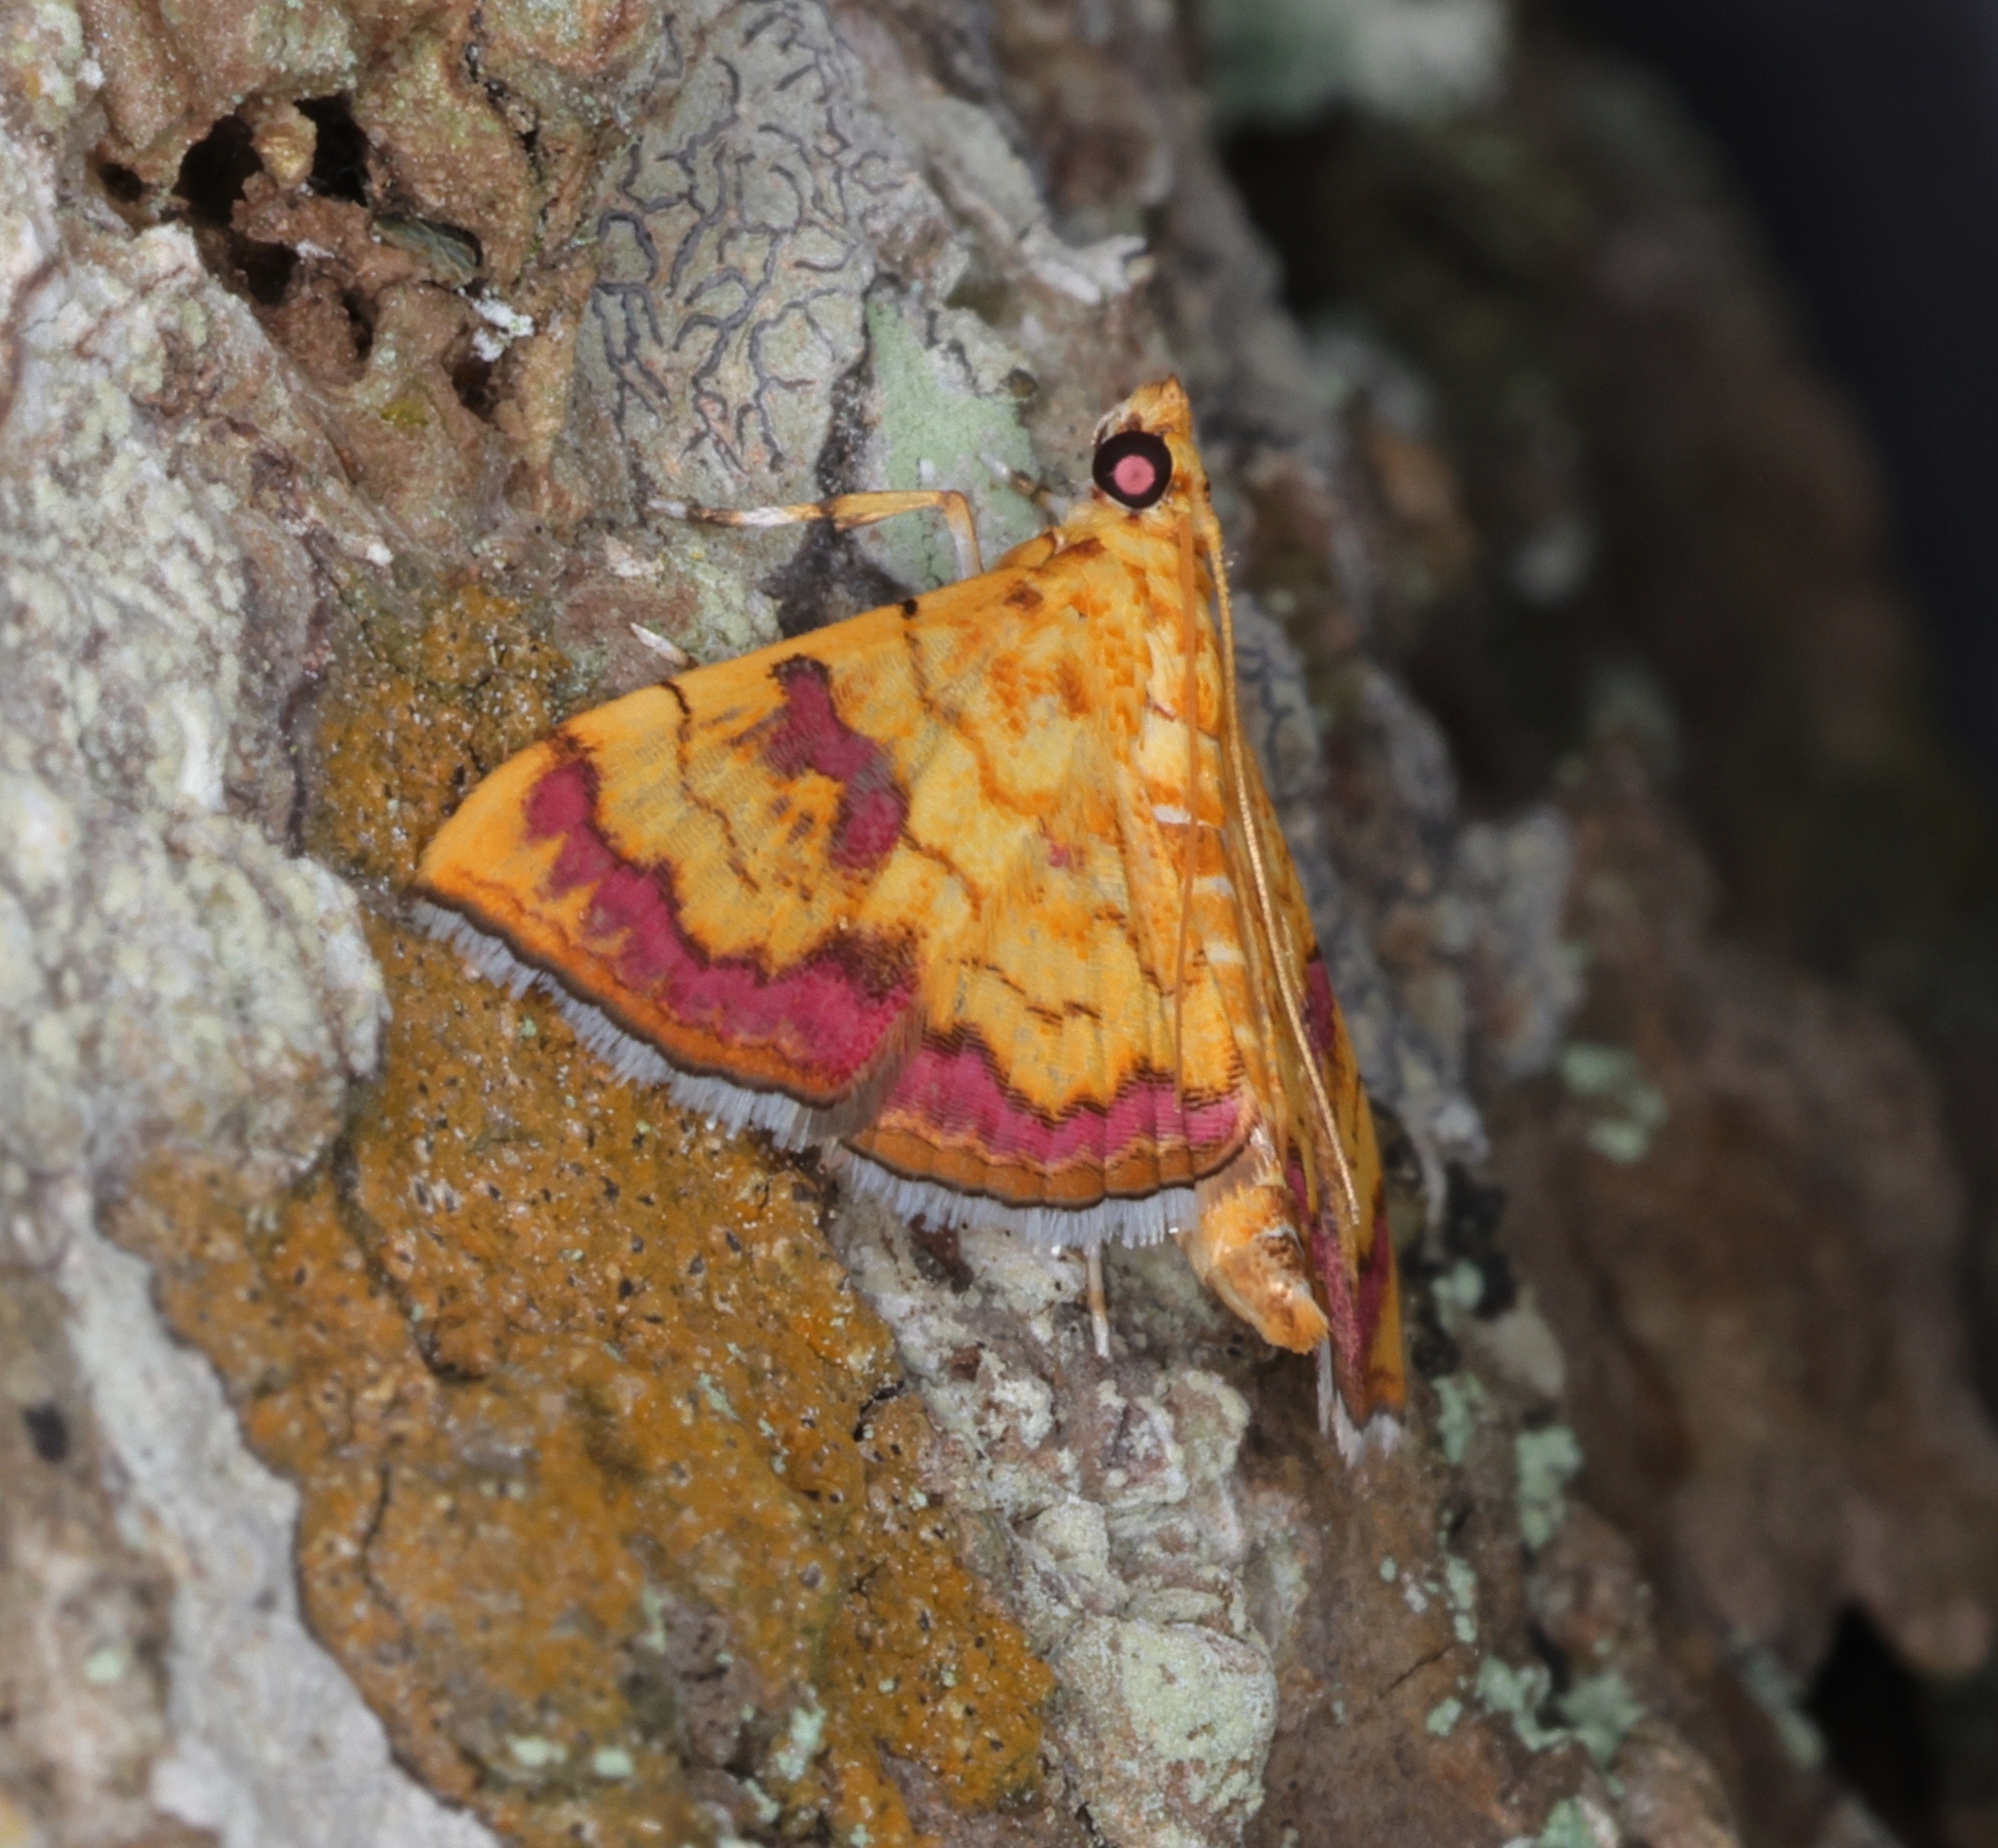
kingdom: Animalia
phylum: Arthropoda
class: Insecta
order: Lepidoptera
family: Crambidae
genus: Isocentris
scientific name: Isocentris filalis
